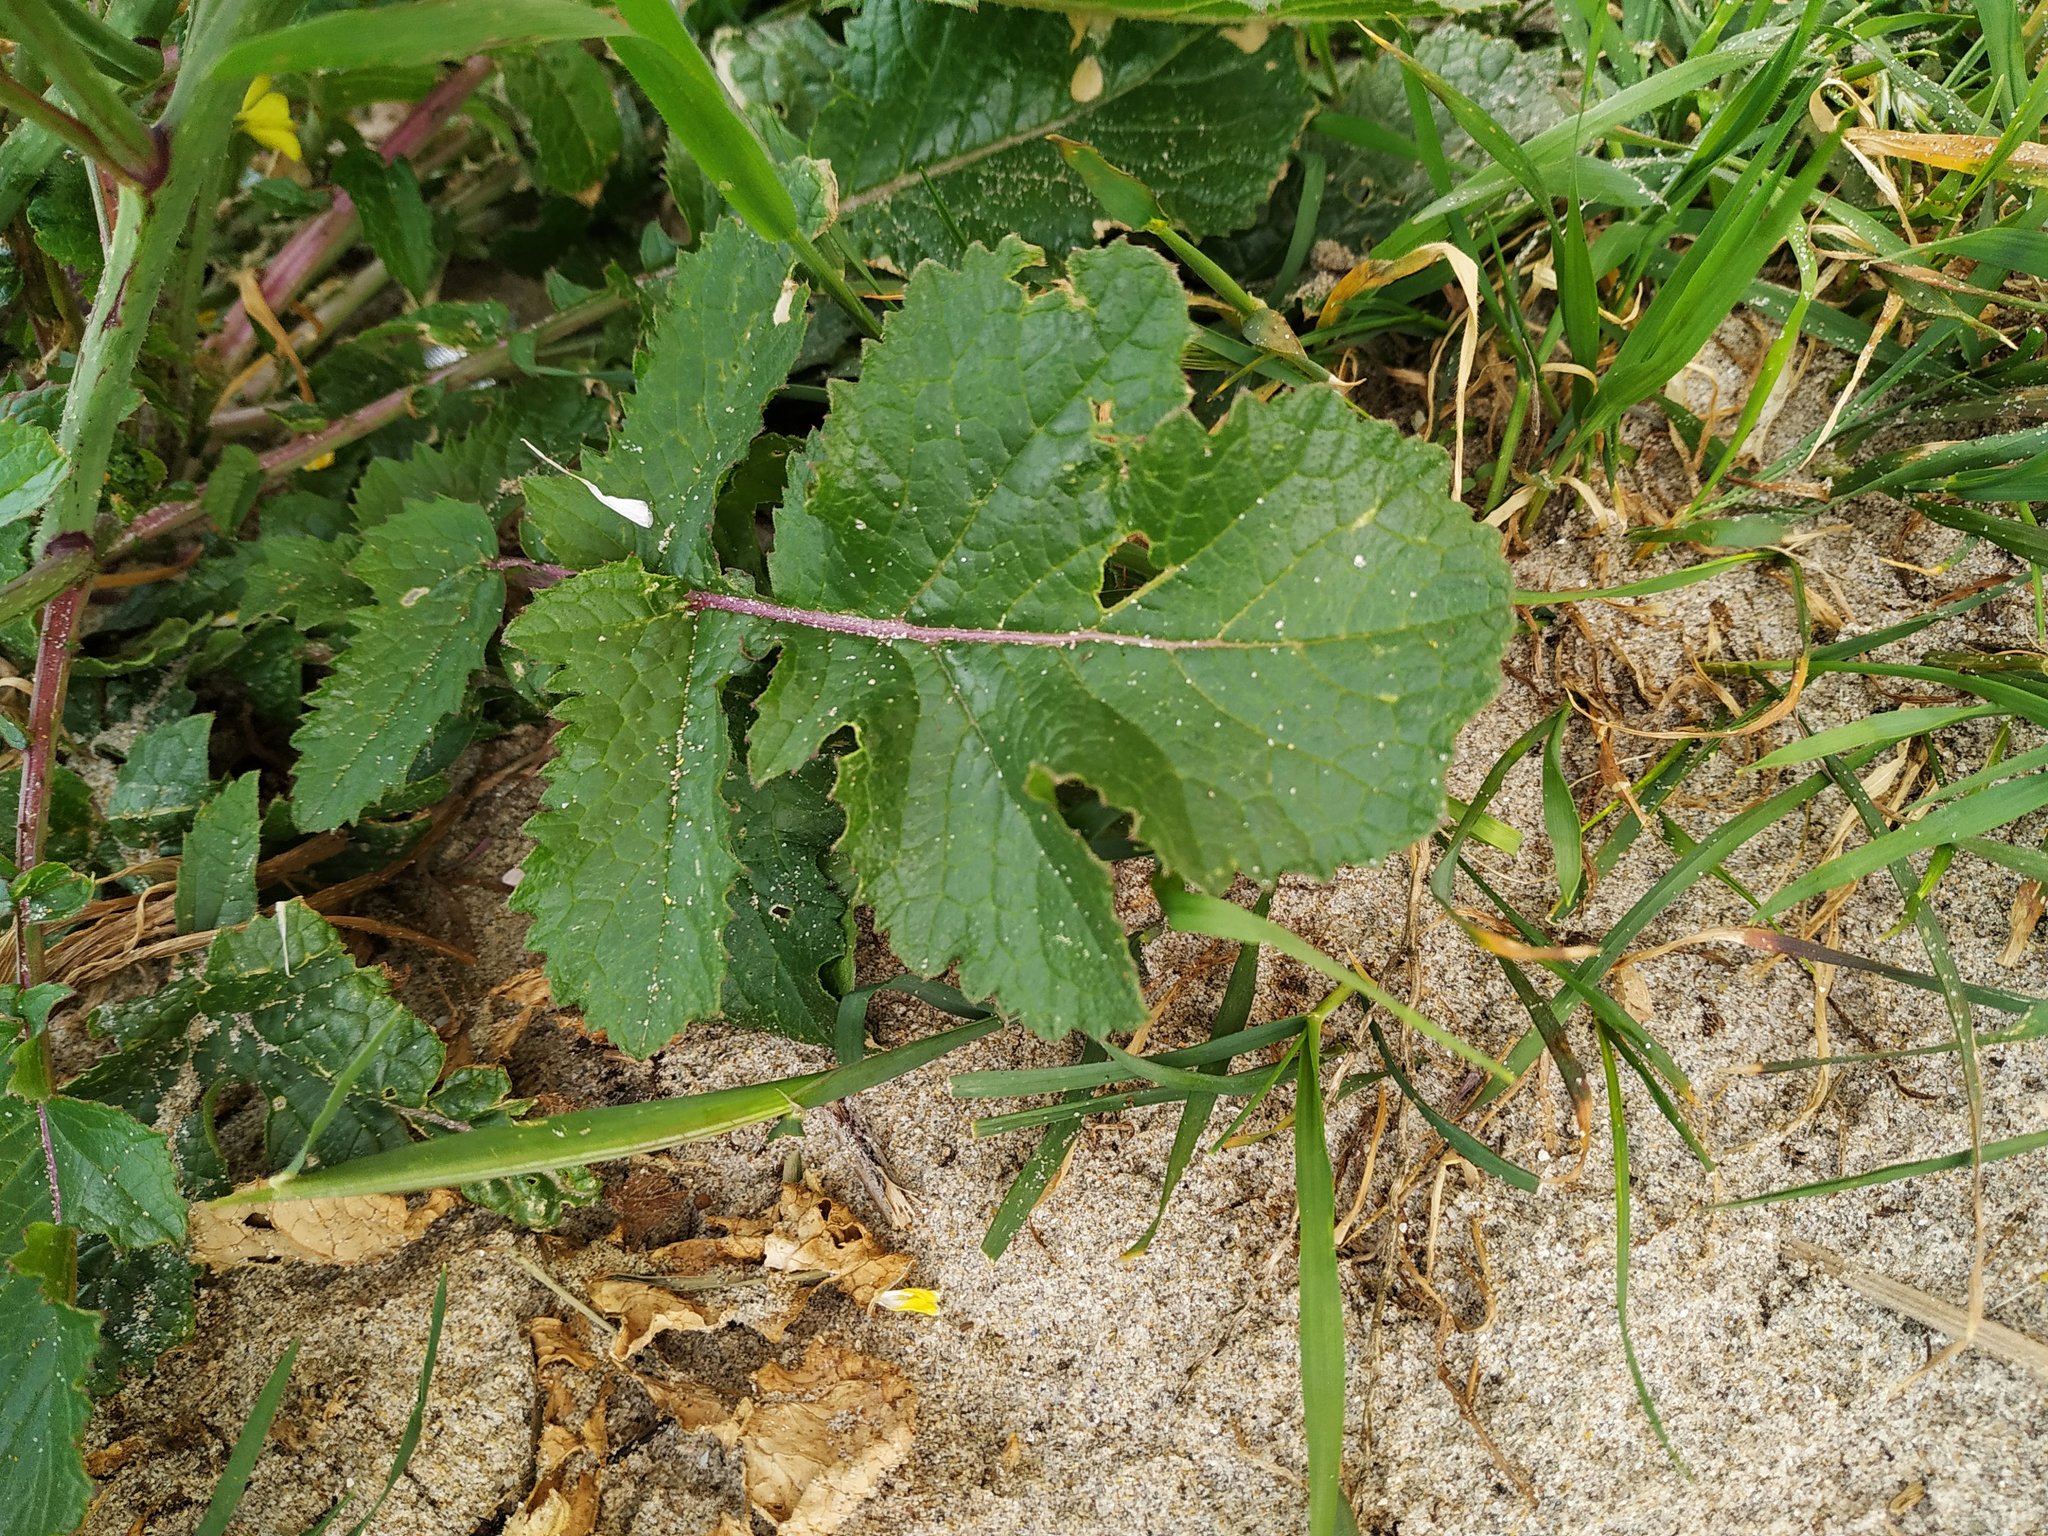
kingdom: Plantae
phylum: Tracheophyta
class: Magnoliopsida
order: Brassicales
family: Brassicaceae
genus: Raphanus
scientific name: Raphanus raphanistrum
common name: Wild radish
